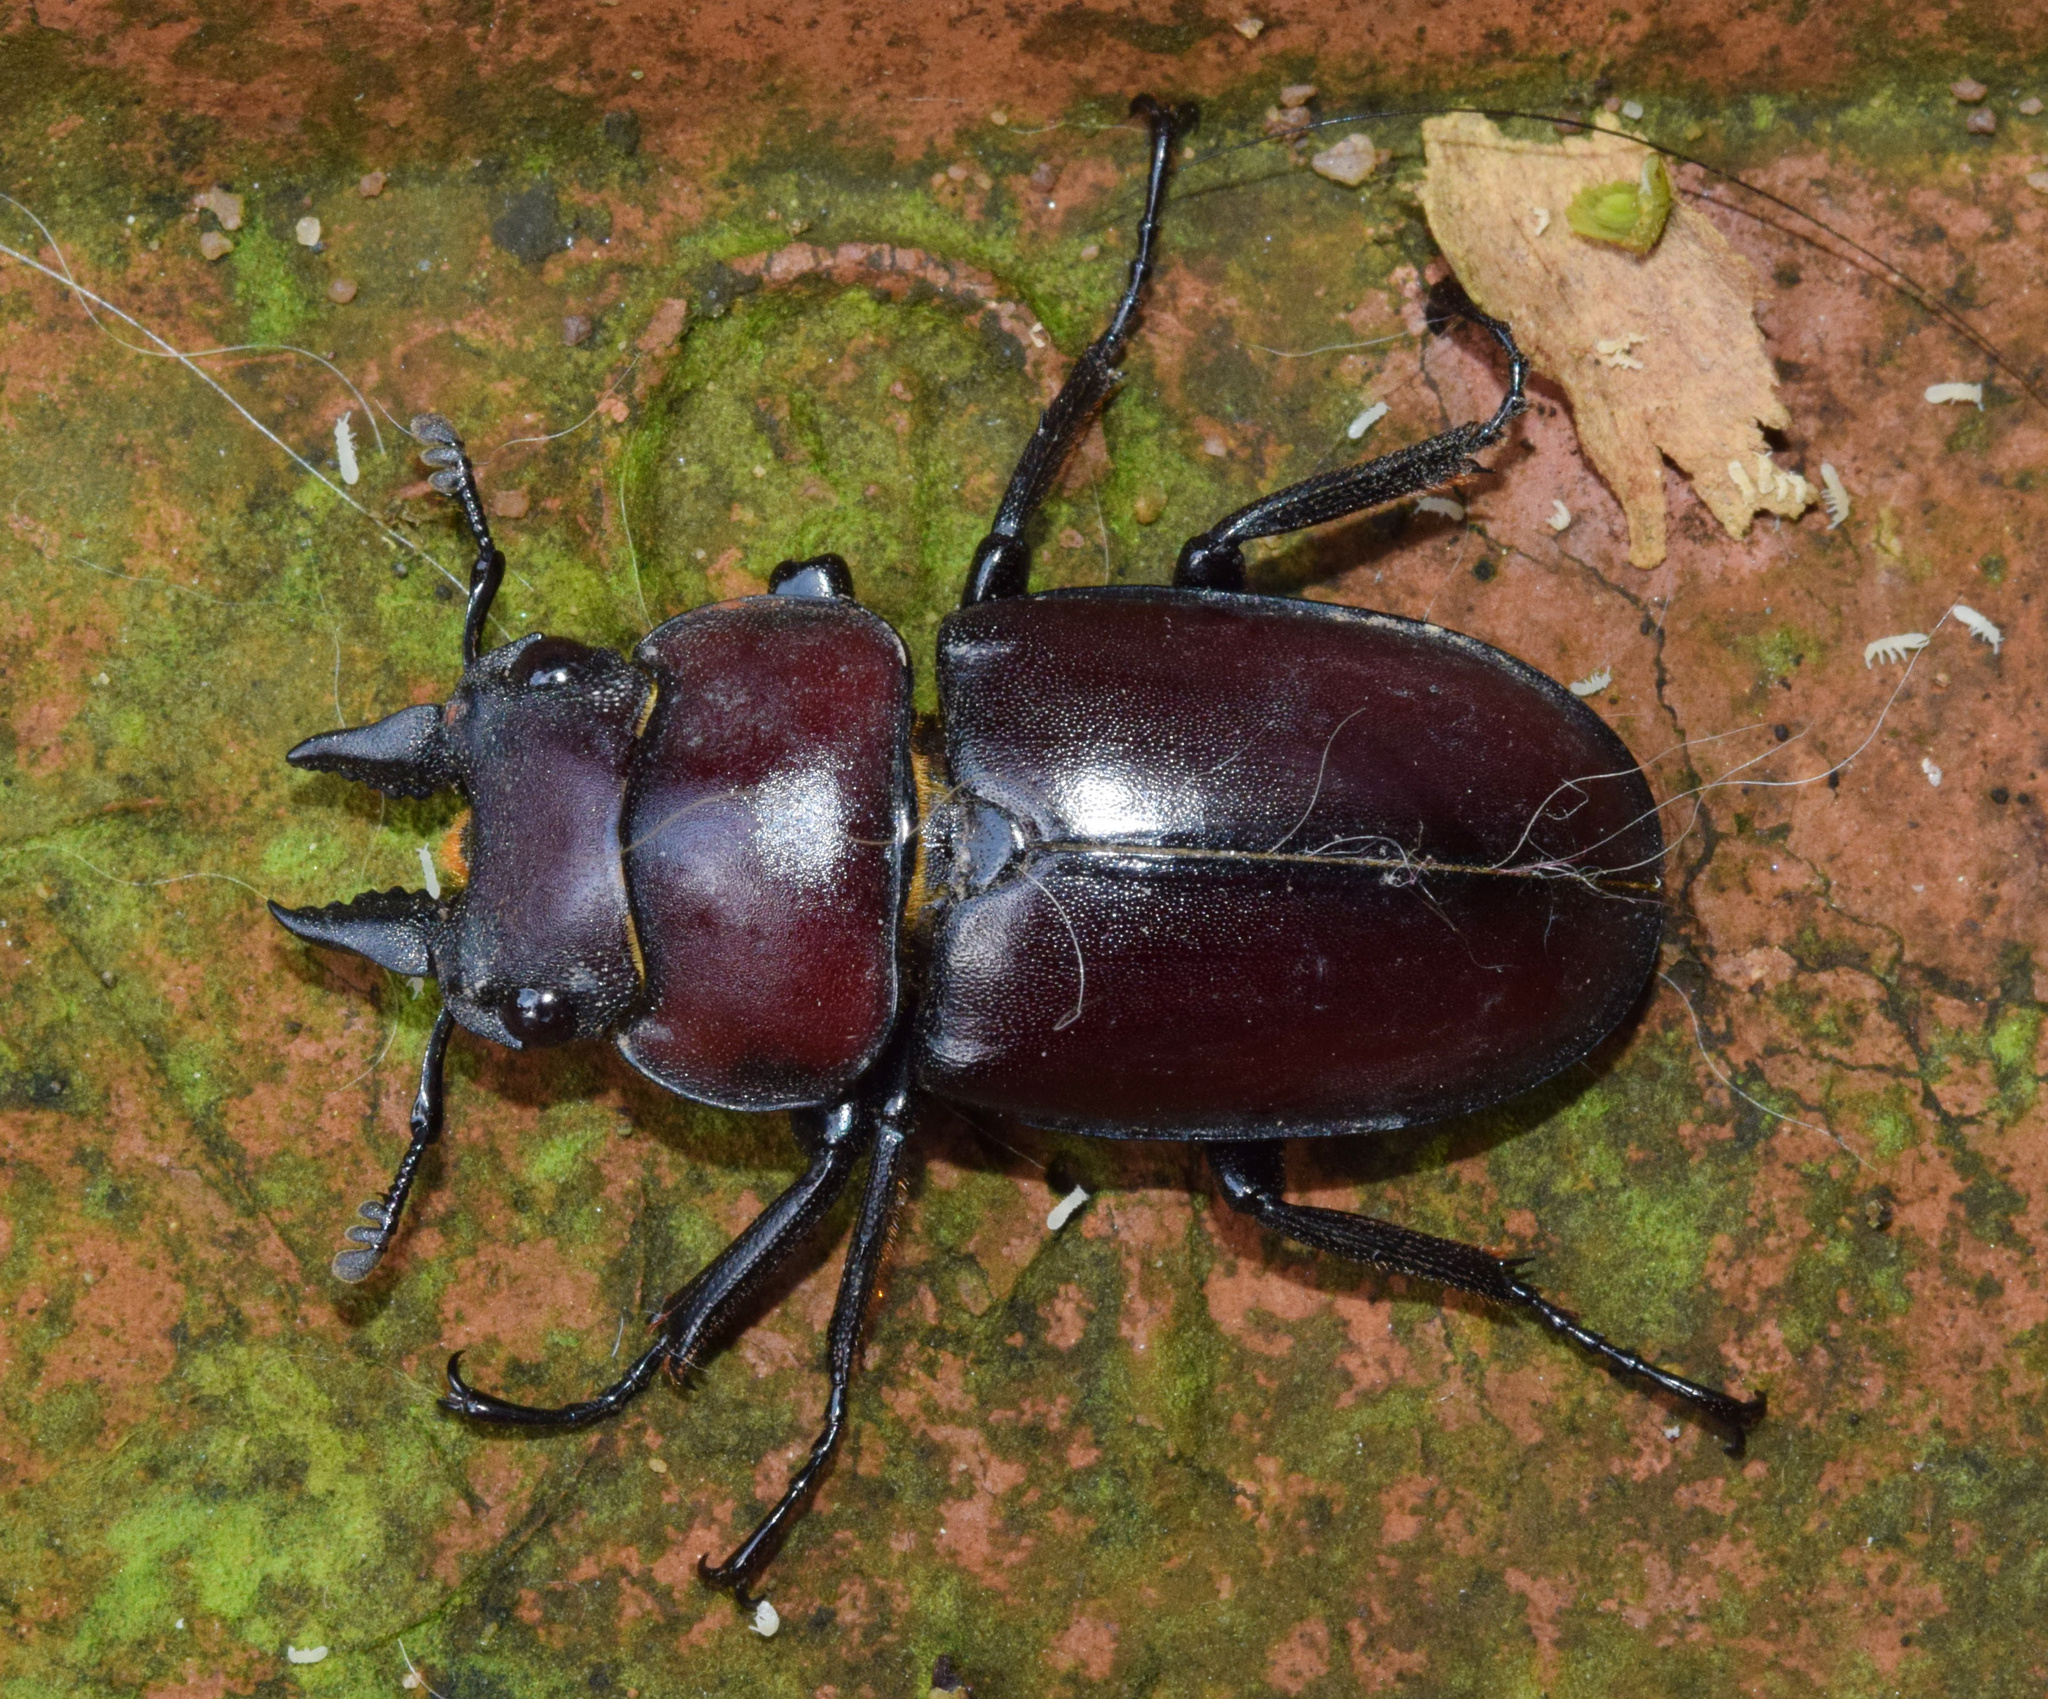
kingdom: Animalia
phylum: Arthropoda
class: Insecta
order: Coleoptera
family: Lucanidae
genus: Prosopocoilus
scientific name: Prosopocoilus natalensis
